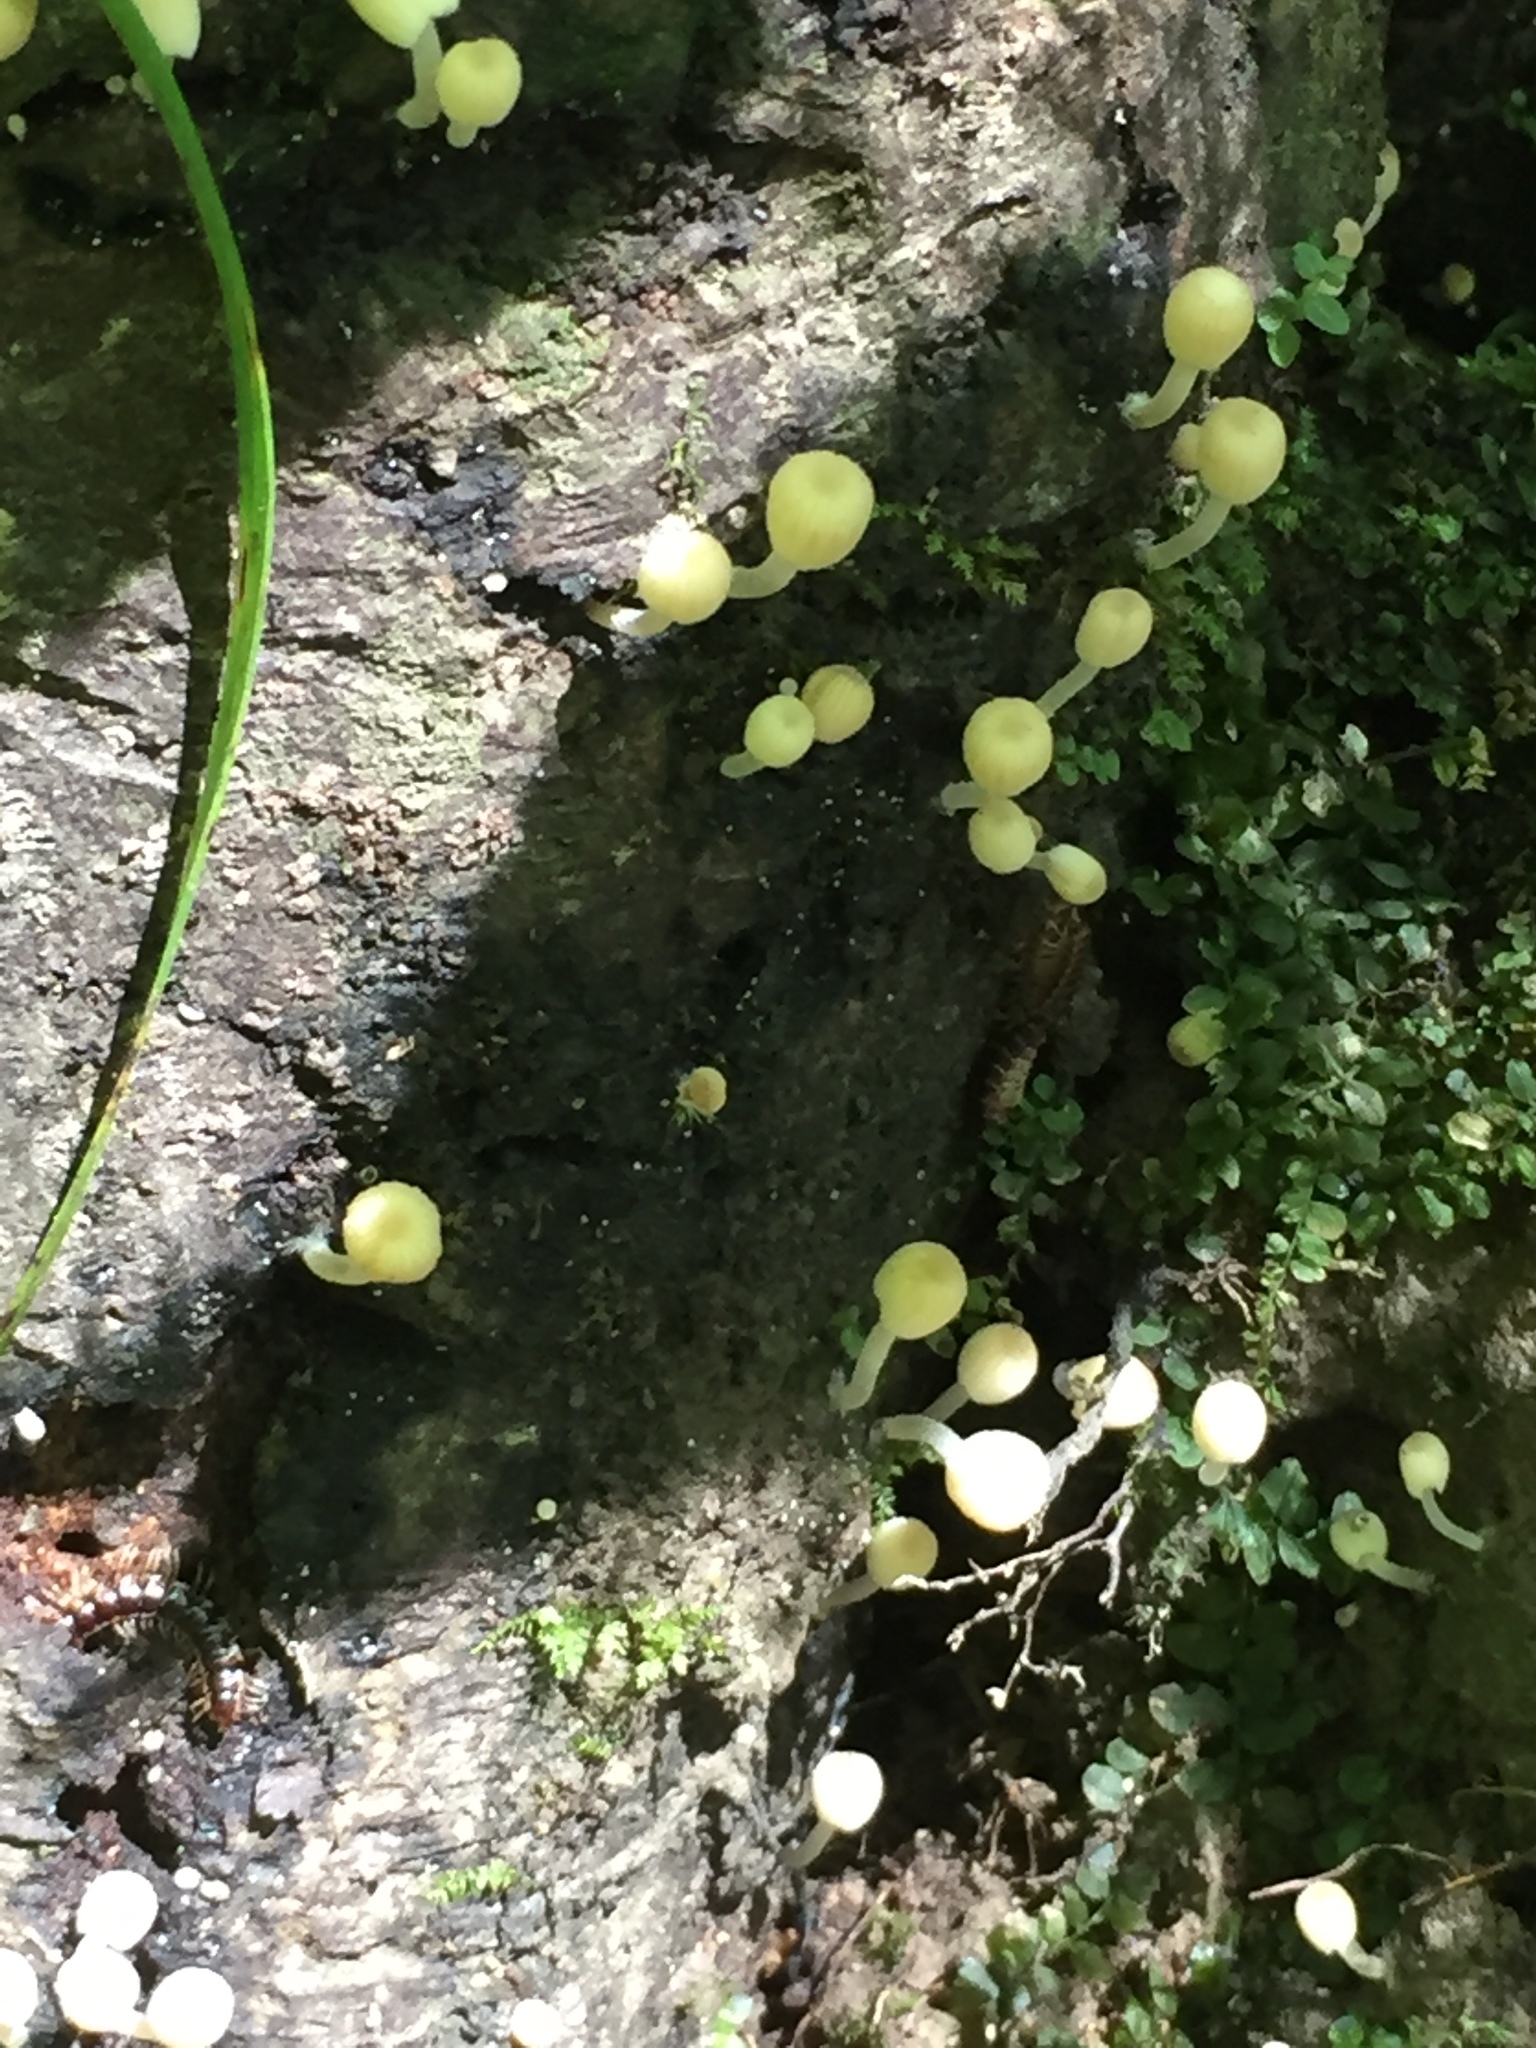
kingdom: Fungi
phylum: Basidiomycota
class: Agaricomycetes
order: Agaricales
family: Psathyrellaceae
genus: Coprinellus
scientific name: Coprinellus disseminatus
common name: Fairies' bonnets
